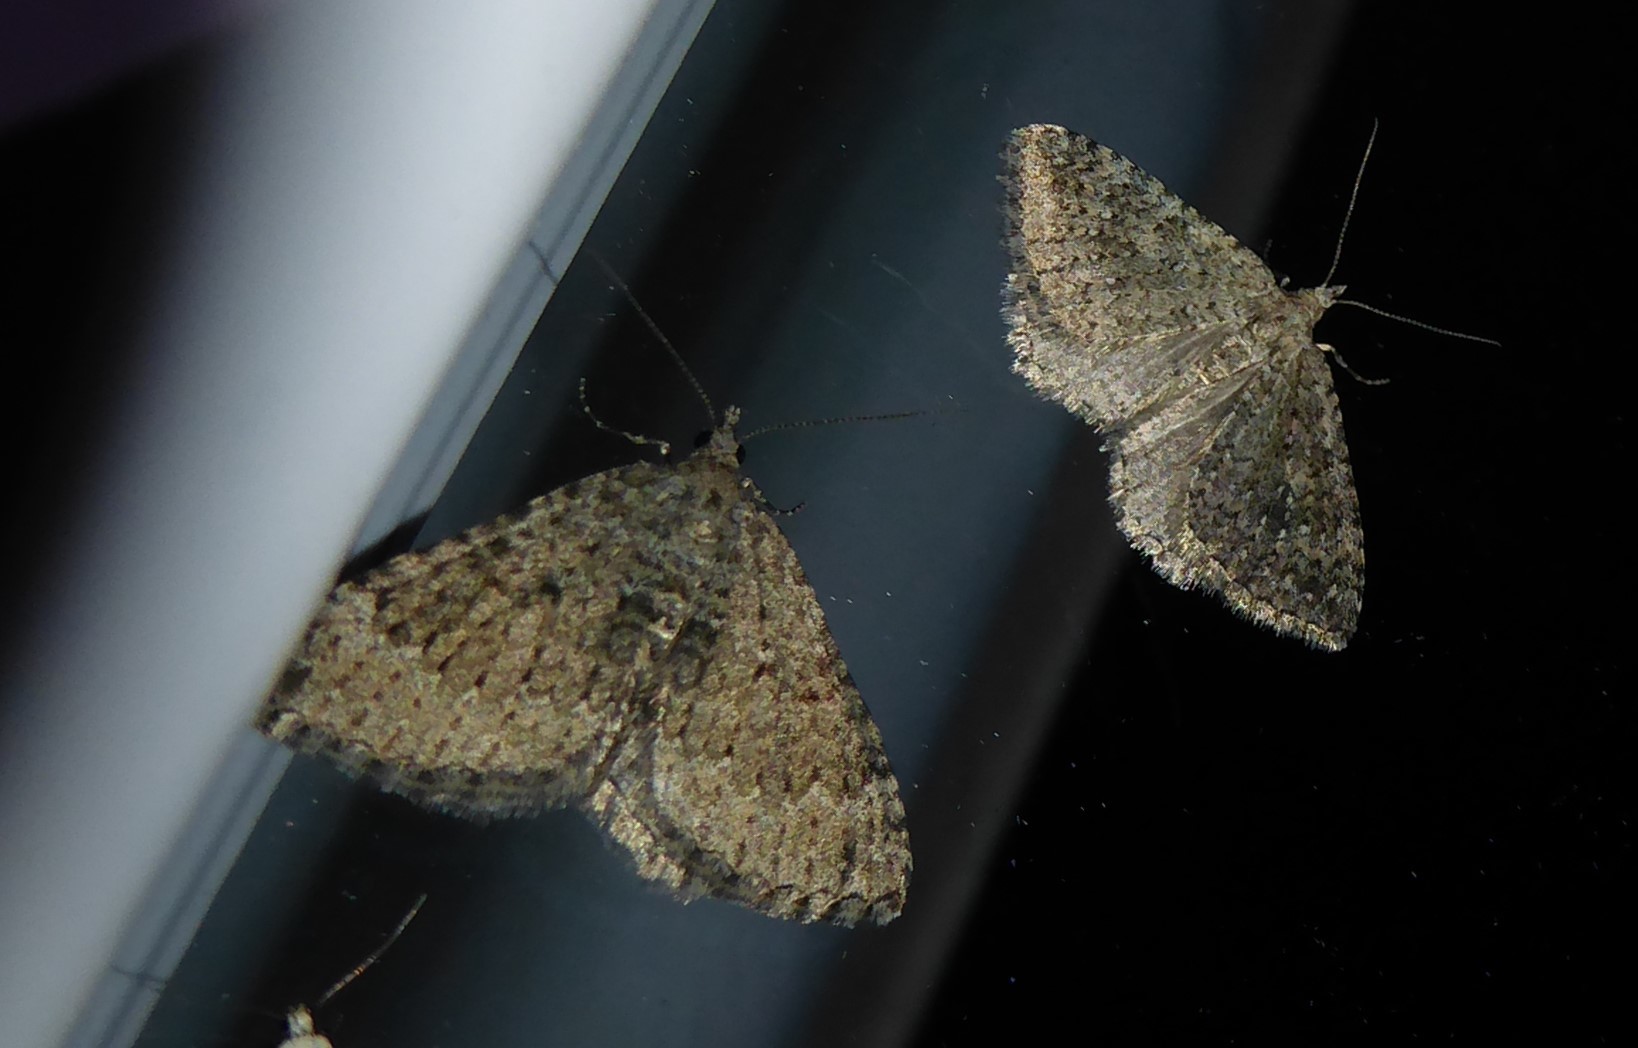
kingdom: Animalia
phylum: Arthropoda
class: Insecta
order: Lepidoptera
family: Geometridae
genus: Helastia
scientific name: Helastia corcularia
